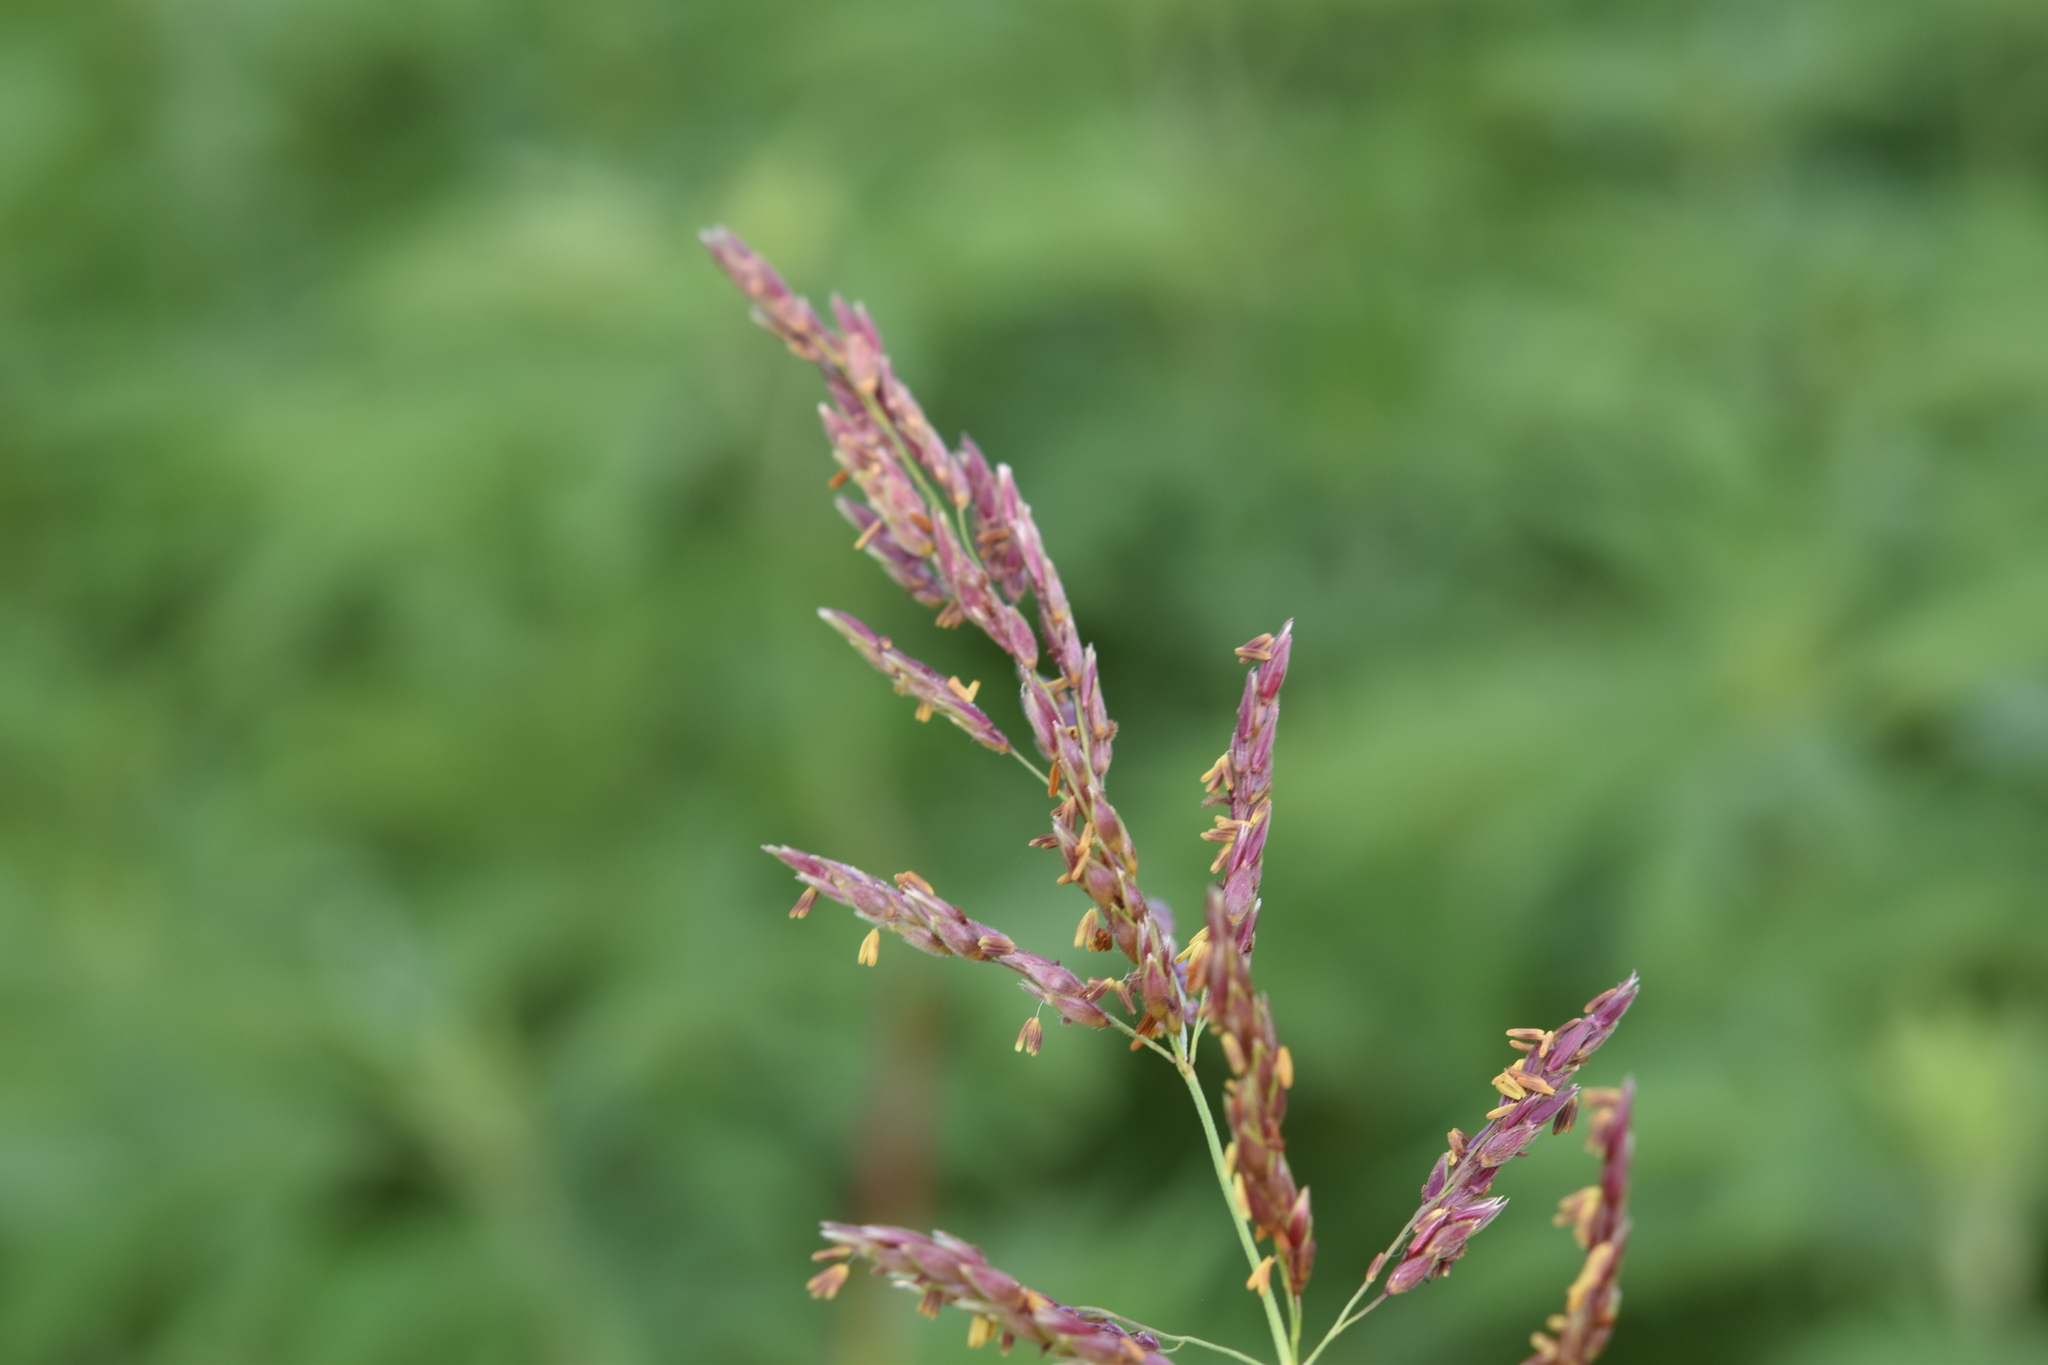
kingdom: Plantae
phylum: Tracheophyta
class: Liliopsida
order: Poales
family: Poaceae
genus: Sorghum
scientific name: Sorghum halepense
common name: Johnson-grass
